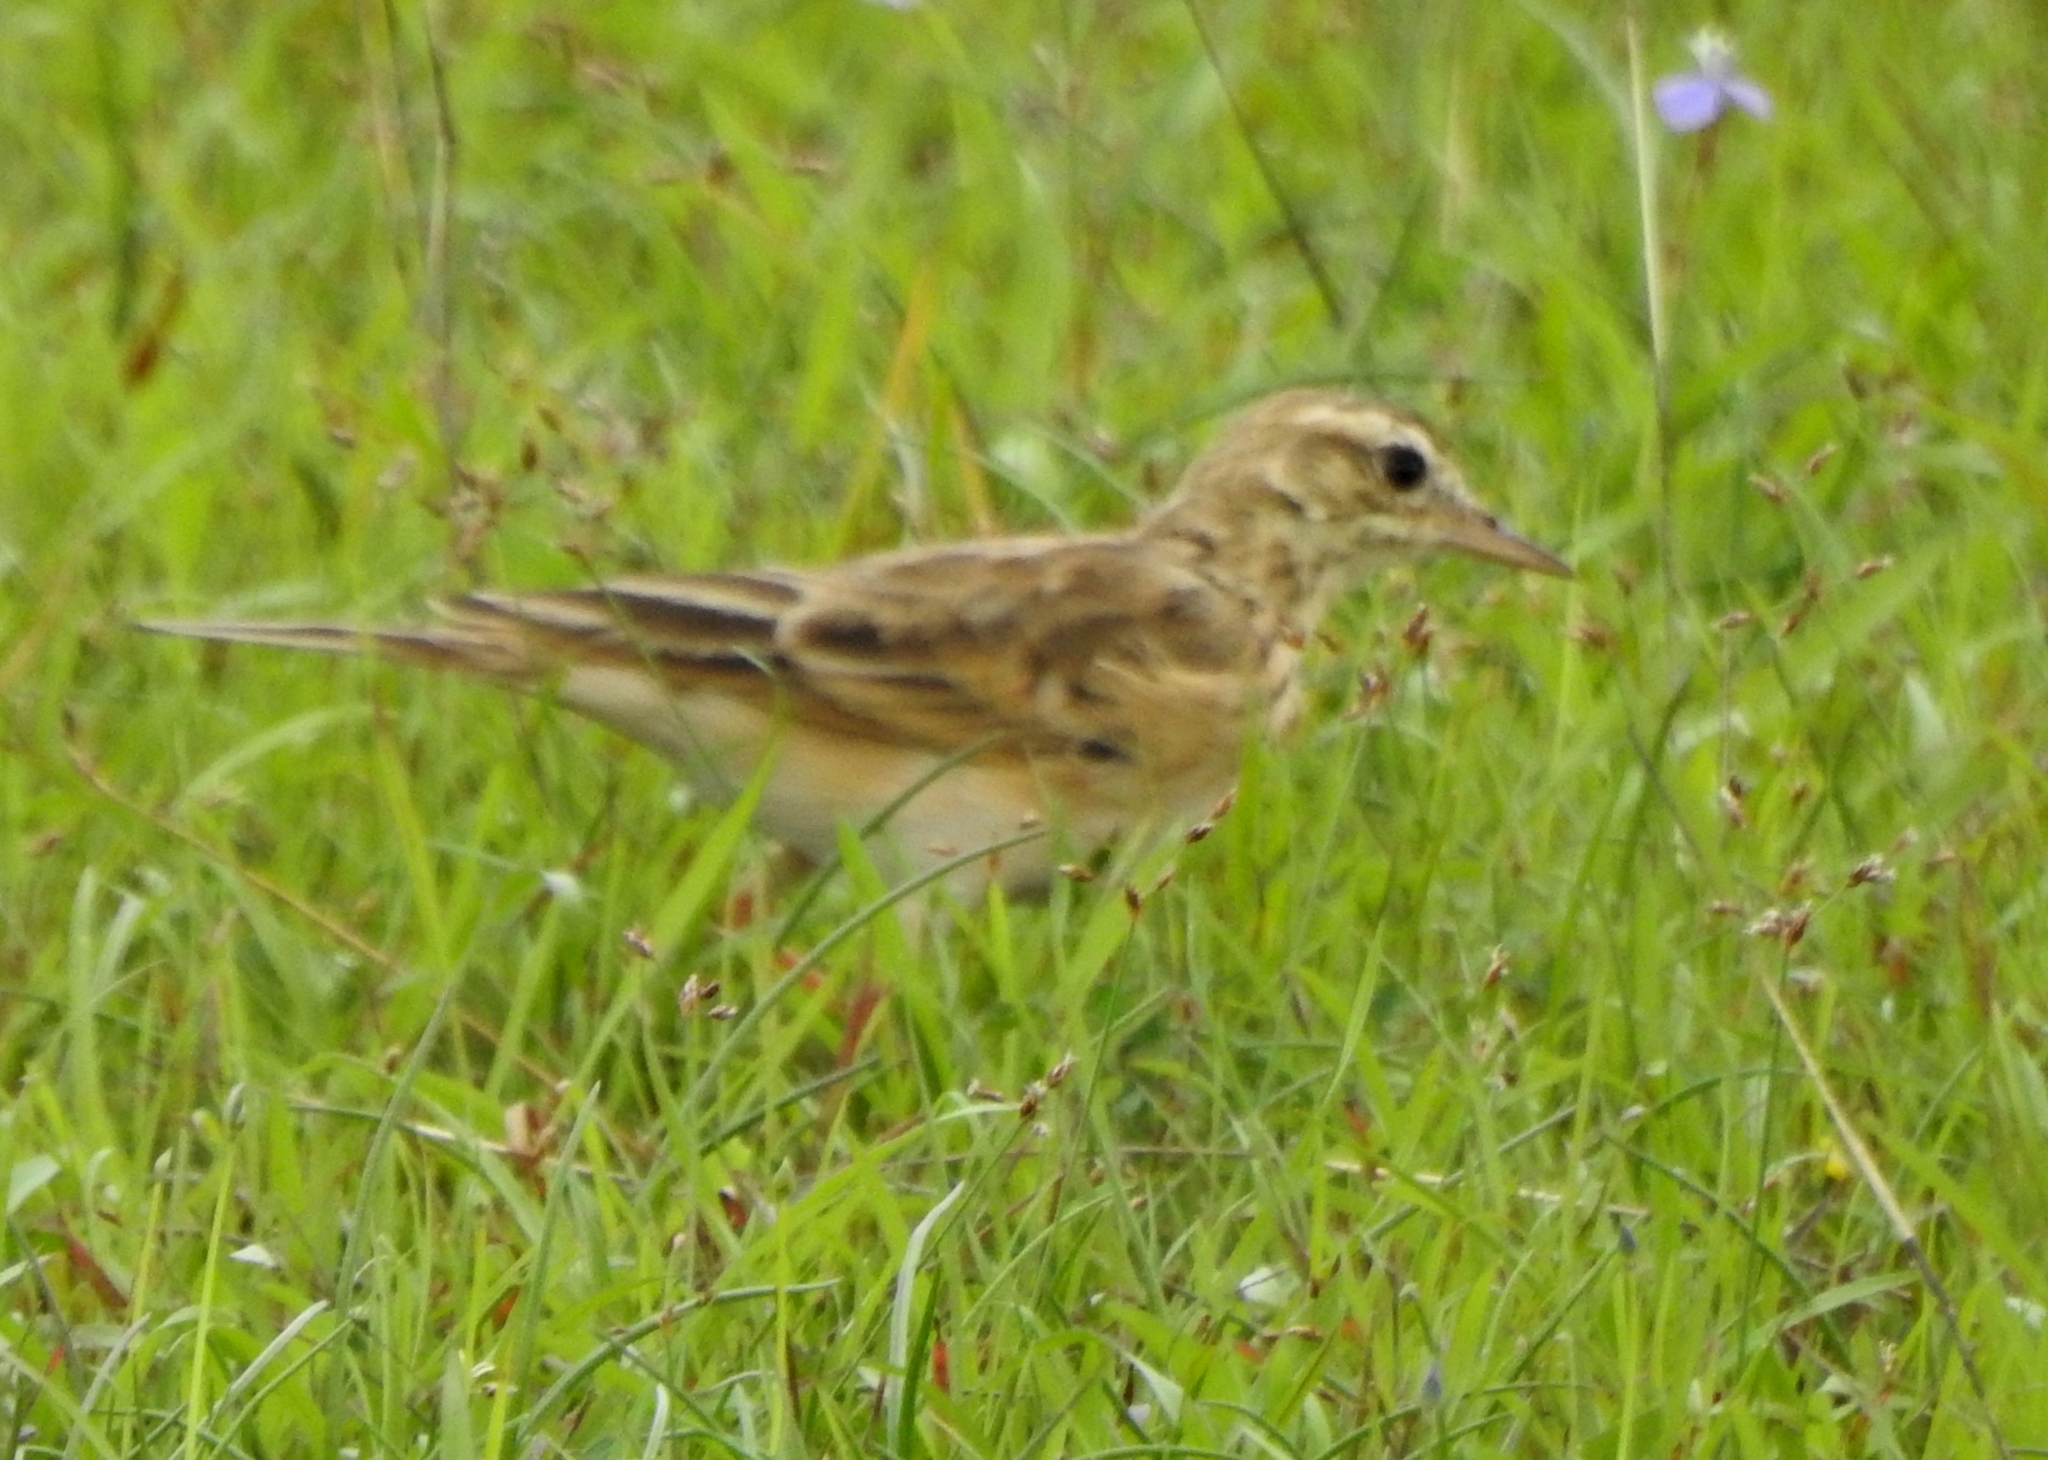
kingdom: Animalia
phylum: Chordata
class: Aves
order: Passeriformes
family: Motacillidae
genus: Anthus
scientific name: Anthus rufulus
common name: Paddyfield pipit
